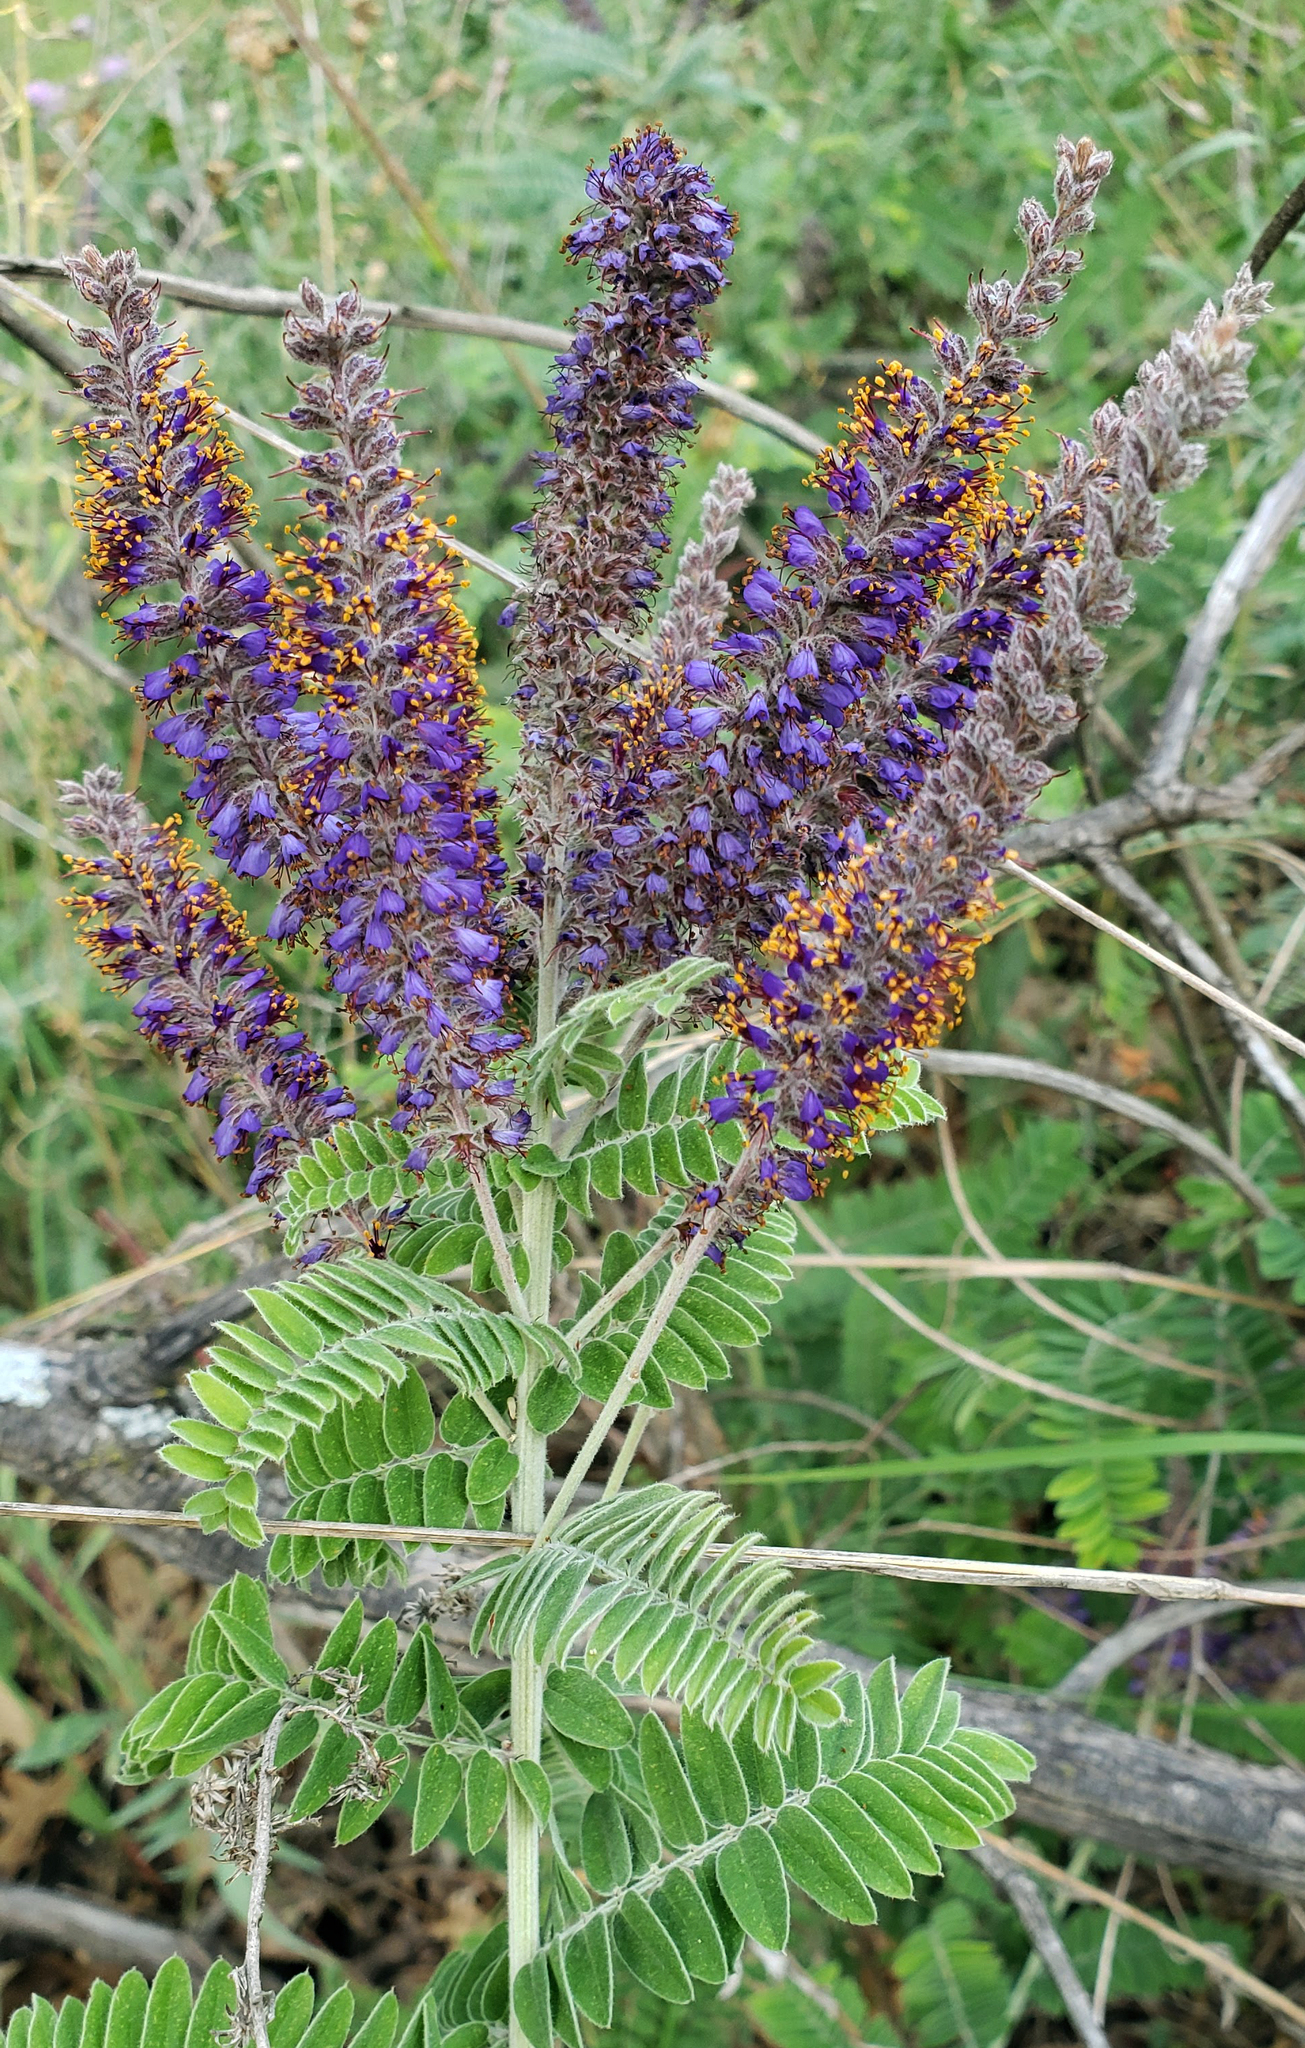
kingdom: Plantae
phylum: Tracheophyta
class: Magnoliopsida
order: Fabales
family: Fabaceae
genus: Amorpha
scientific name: Amorpha canescens
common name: Leadplant
